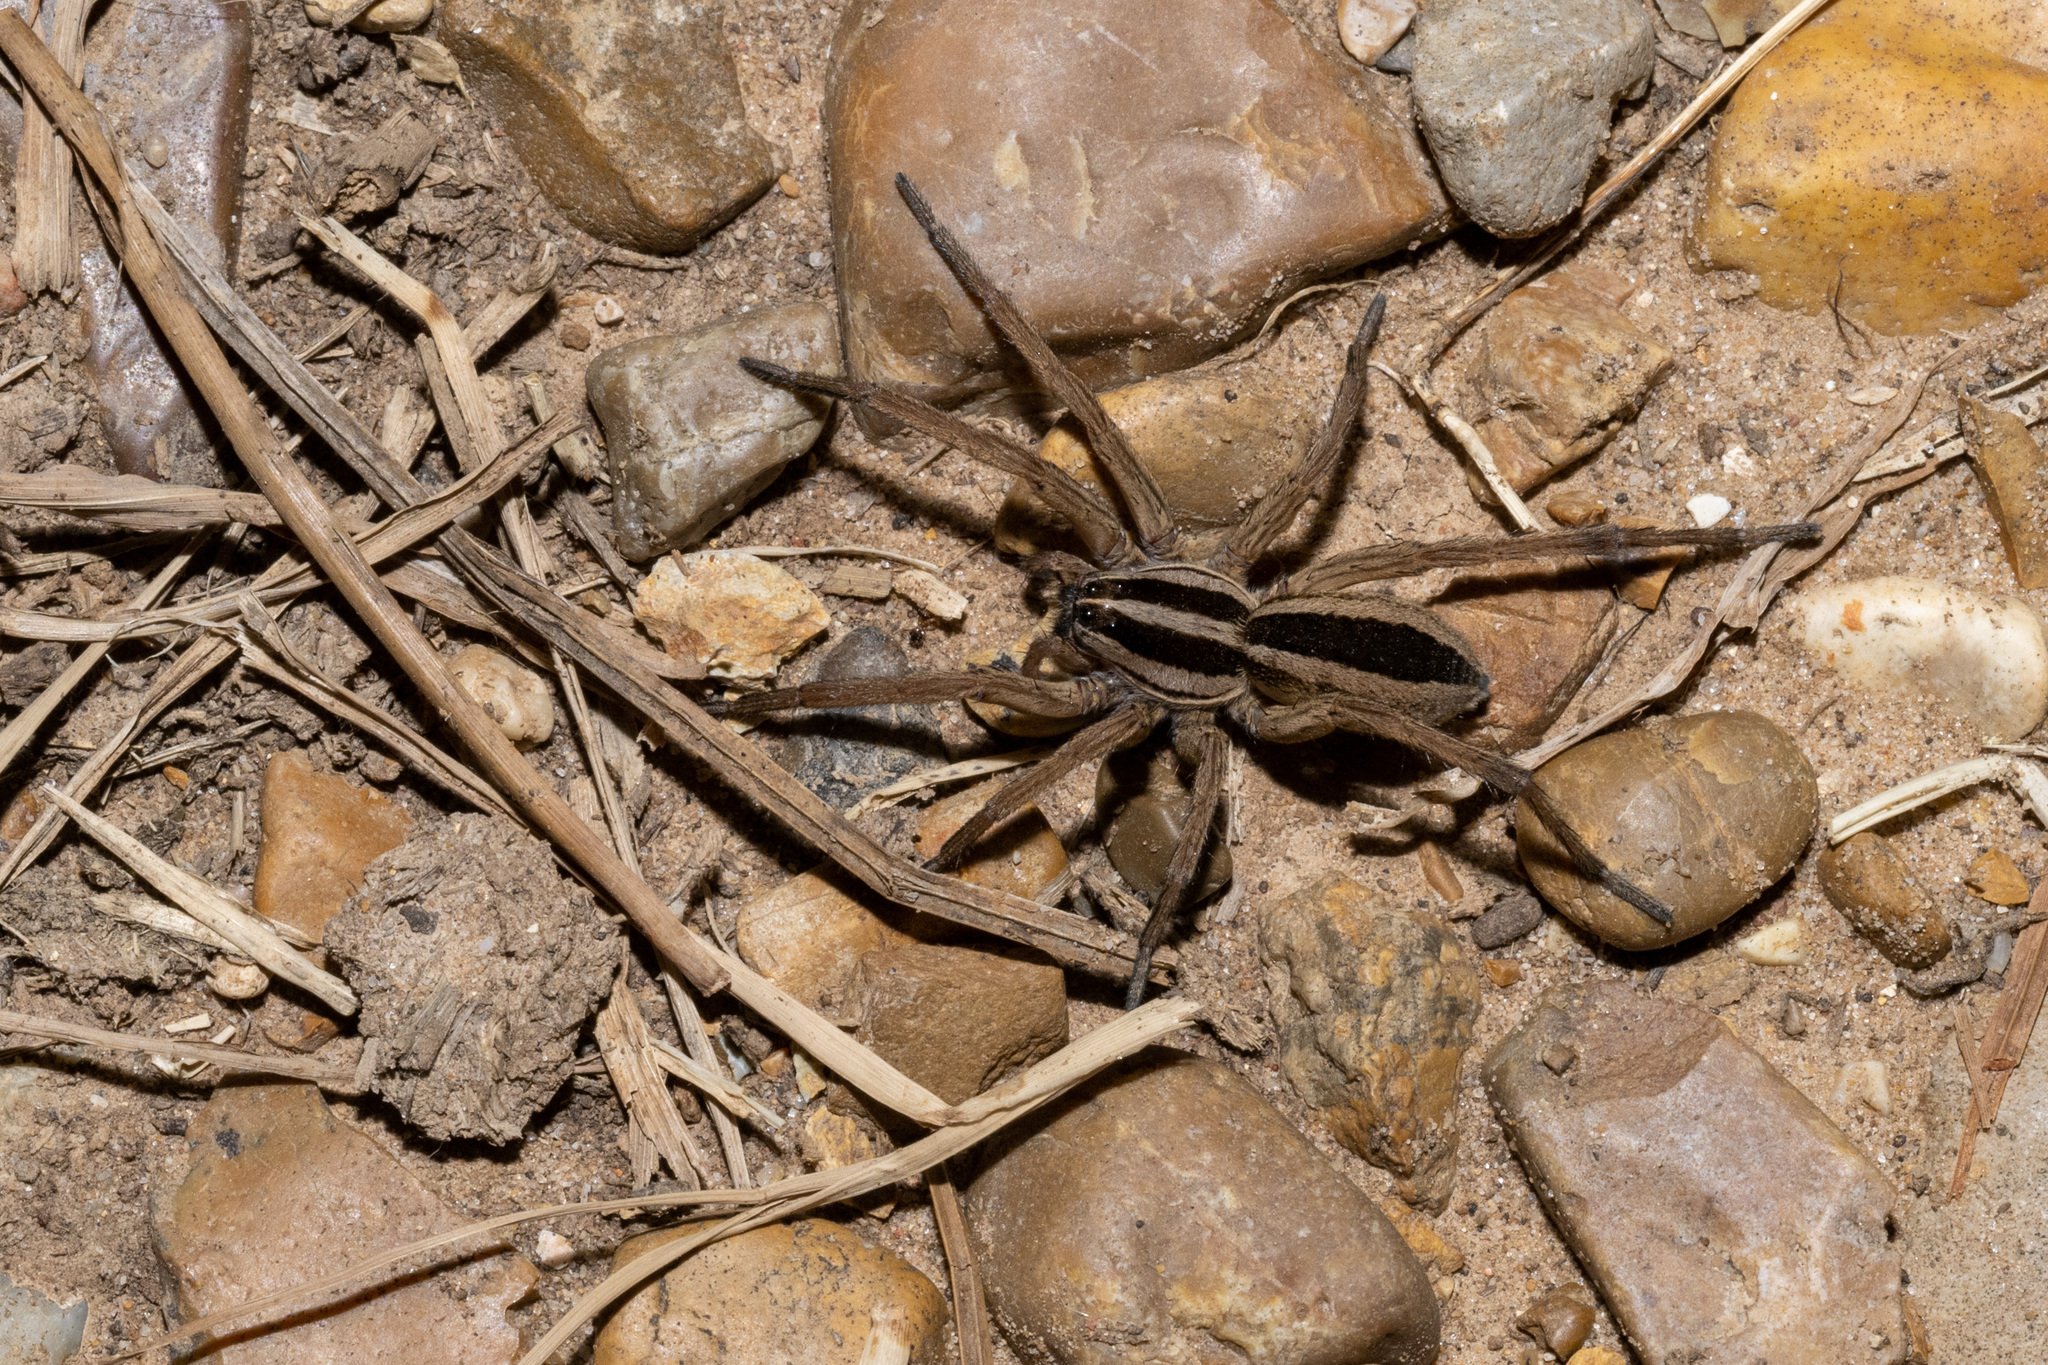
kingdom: Animalia
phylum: Arthropoda
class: Arachnida
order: Araneae
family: Lycosidae
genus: Rabidosa
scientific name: Rabidosa punctulata
